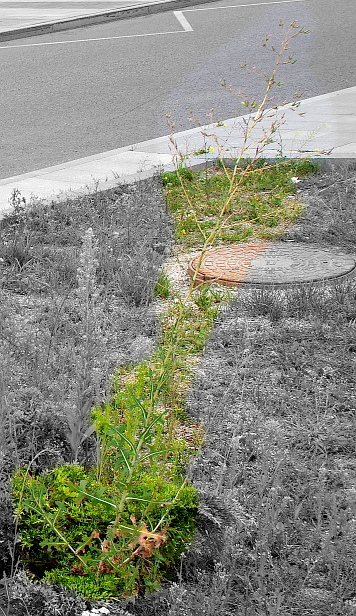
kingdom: Plantae
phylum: Tracheophyta
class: Magnoliopsida
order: Asterales
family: Asteraceae
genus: Lactuca
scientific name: Lactuca serriola
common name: Prickly lettuce
